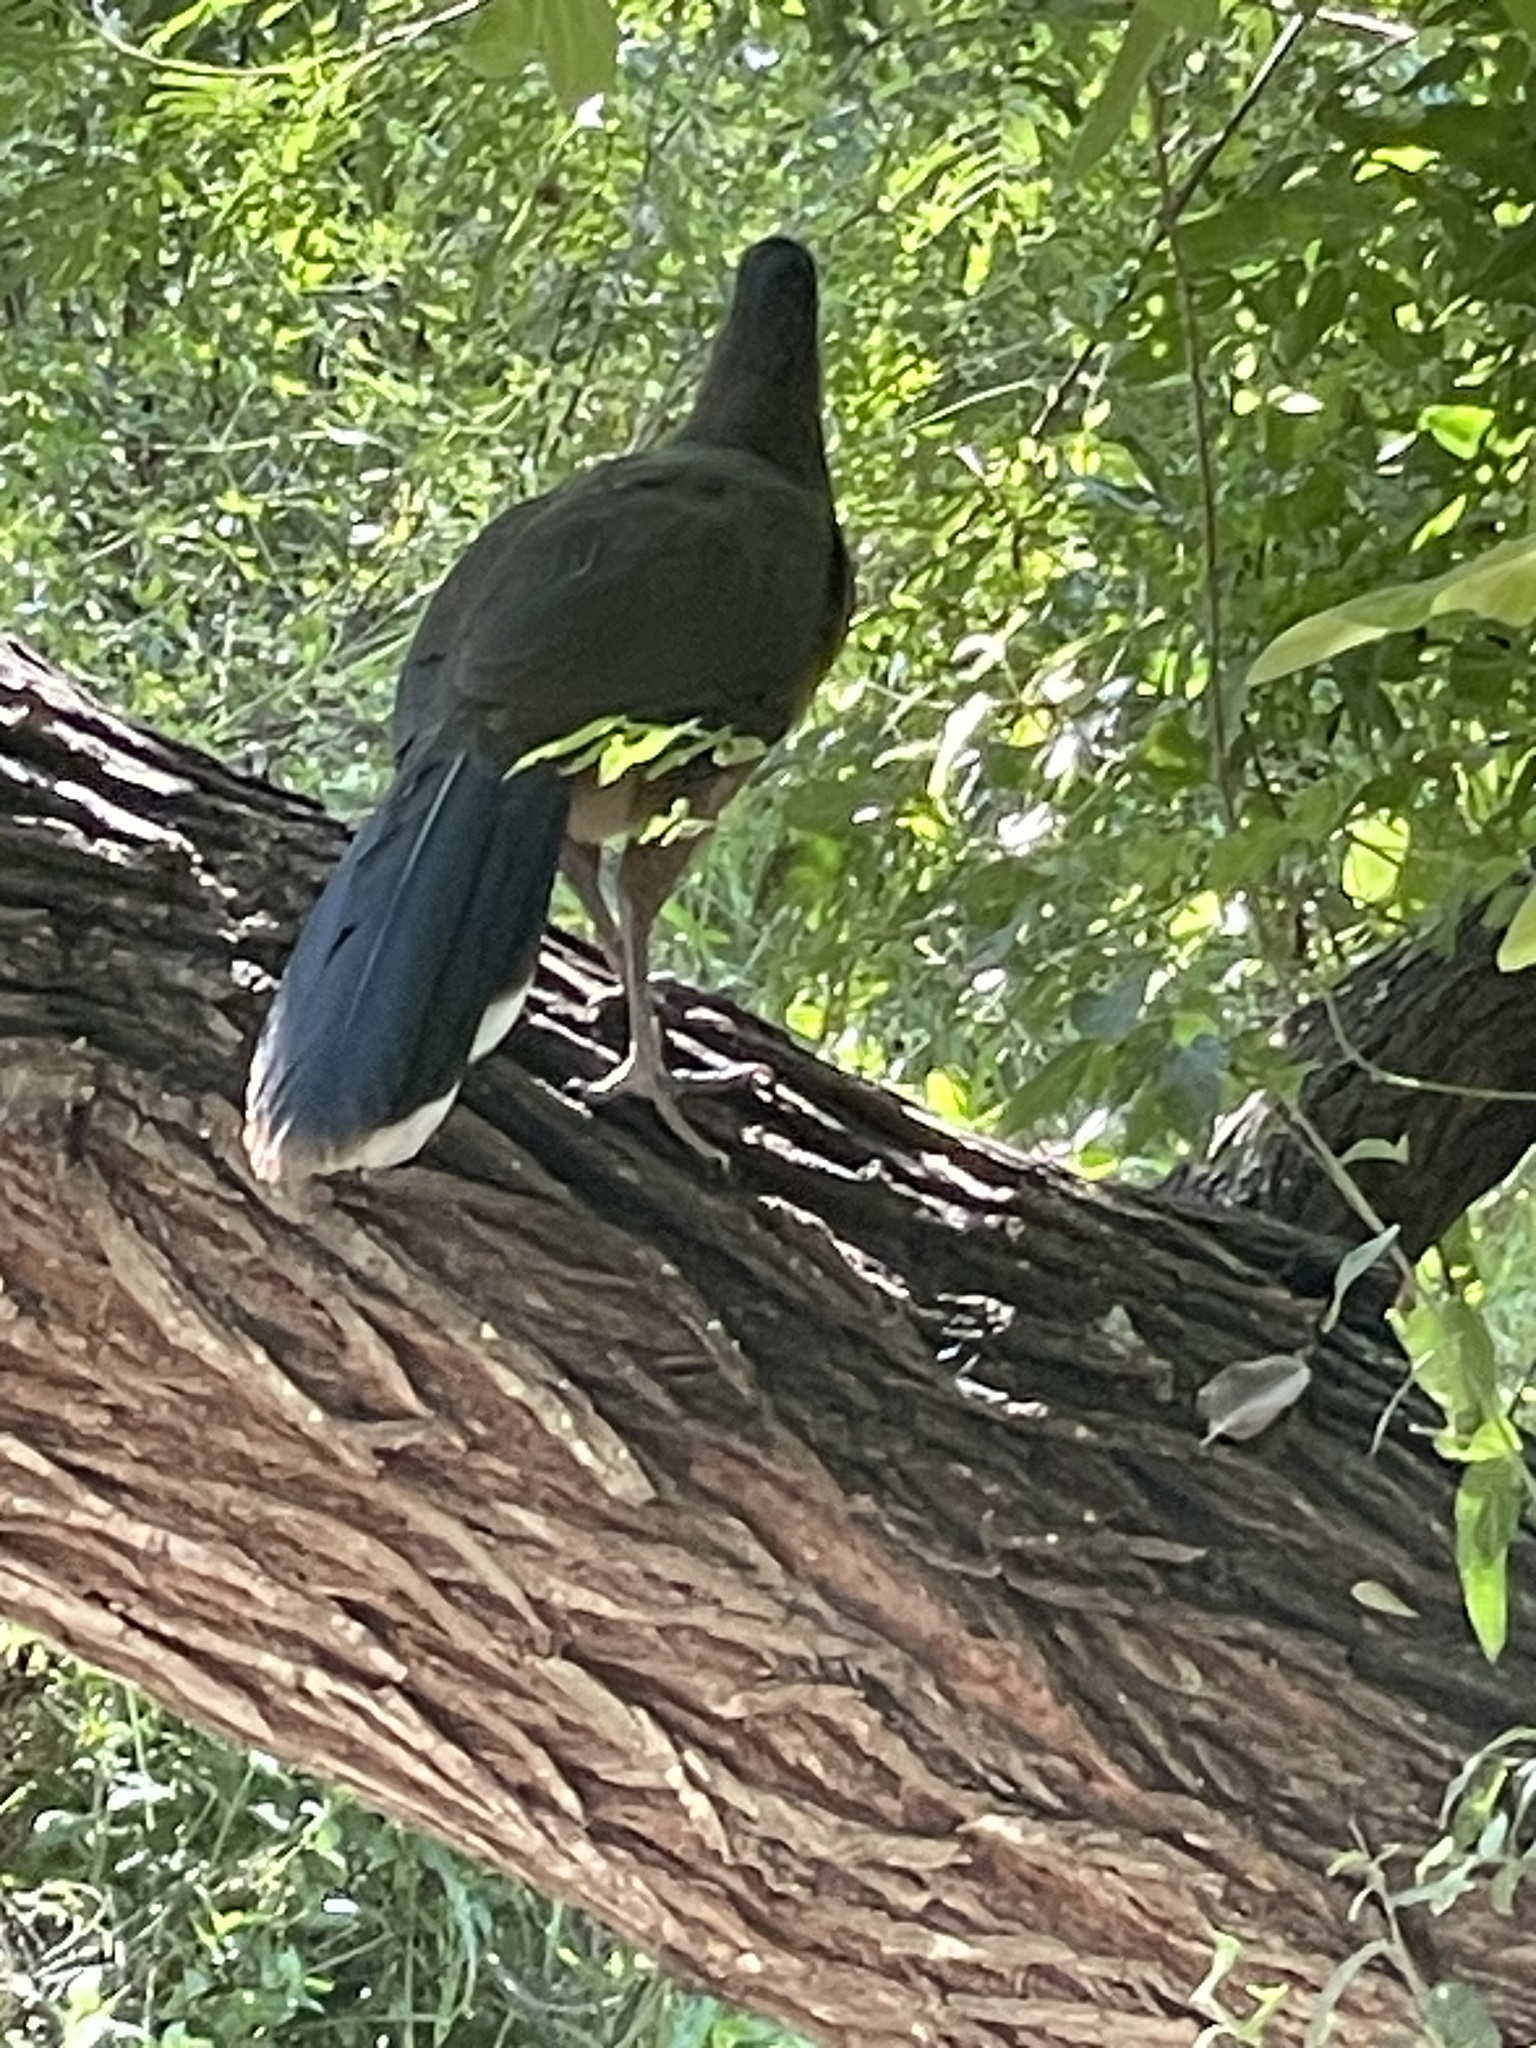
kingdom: Animalia
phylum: Chordata
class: Aves
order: Galliformes
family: Cracidae
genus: Ortalis
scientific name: Ortalis vetula
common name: Plain chachalaca
